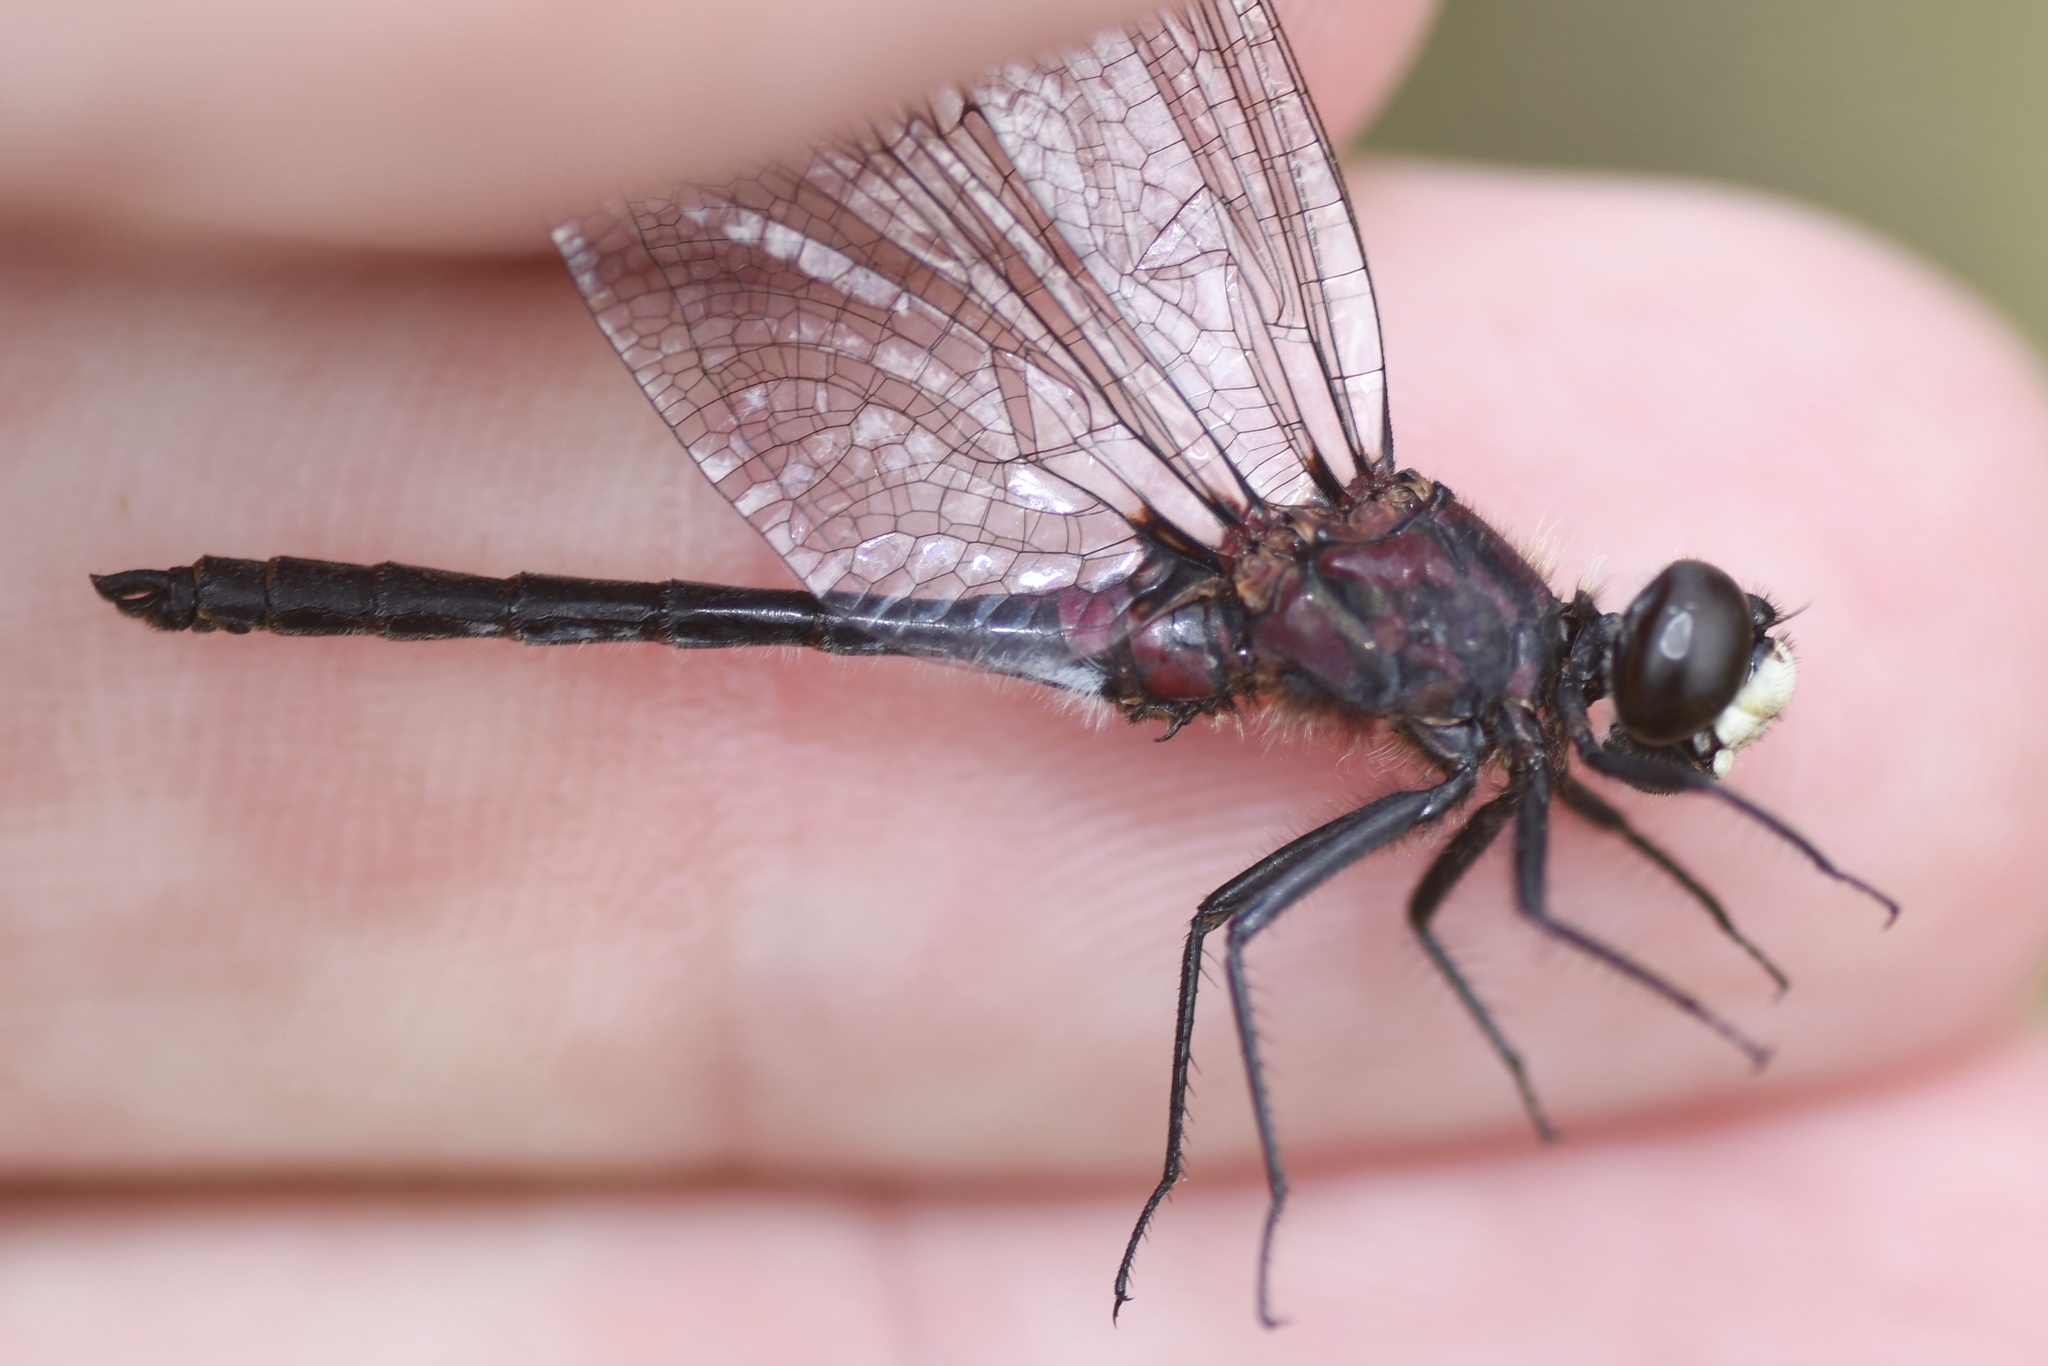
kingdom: Animalia
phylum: Arthropoda
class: Insecta
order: Odonata
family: Libellulidae
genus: Leucorrhinia
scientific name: Leucorrhinia patricia
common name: Canada whiteface
